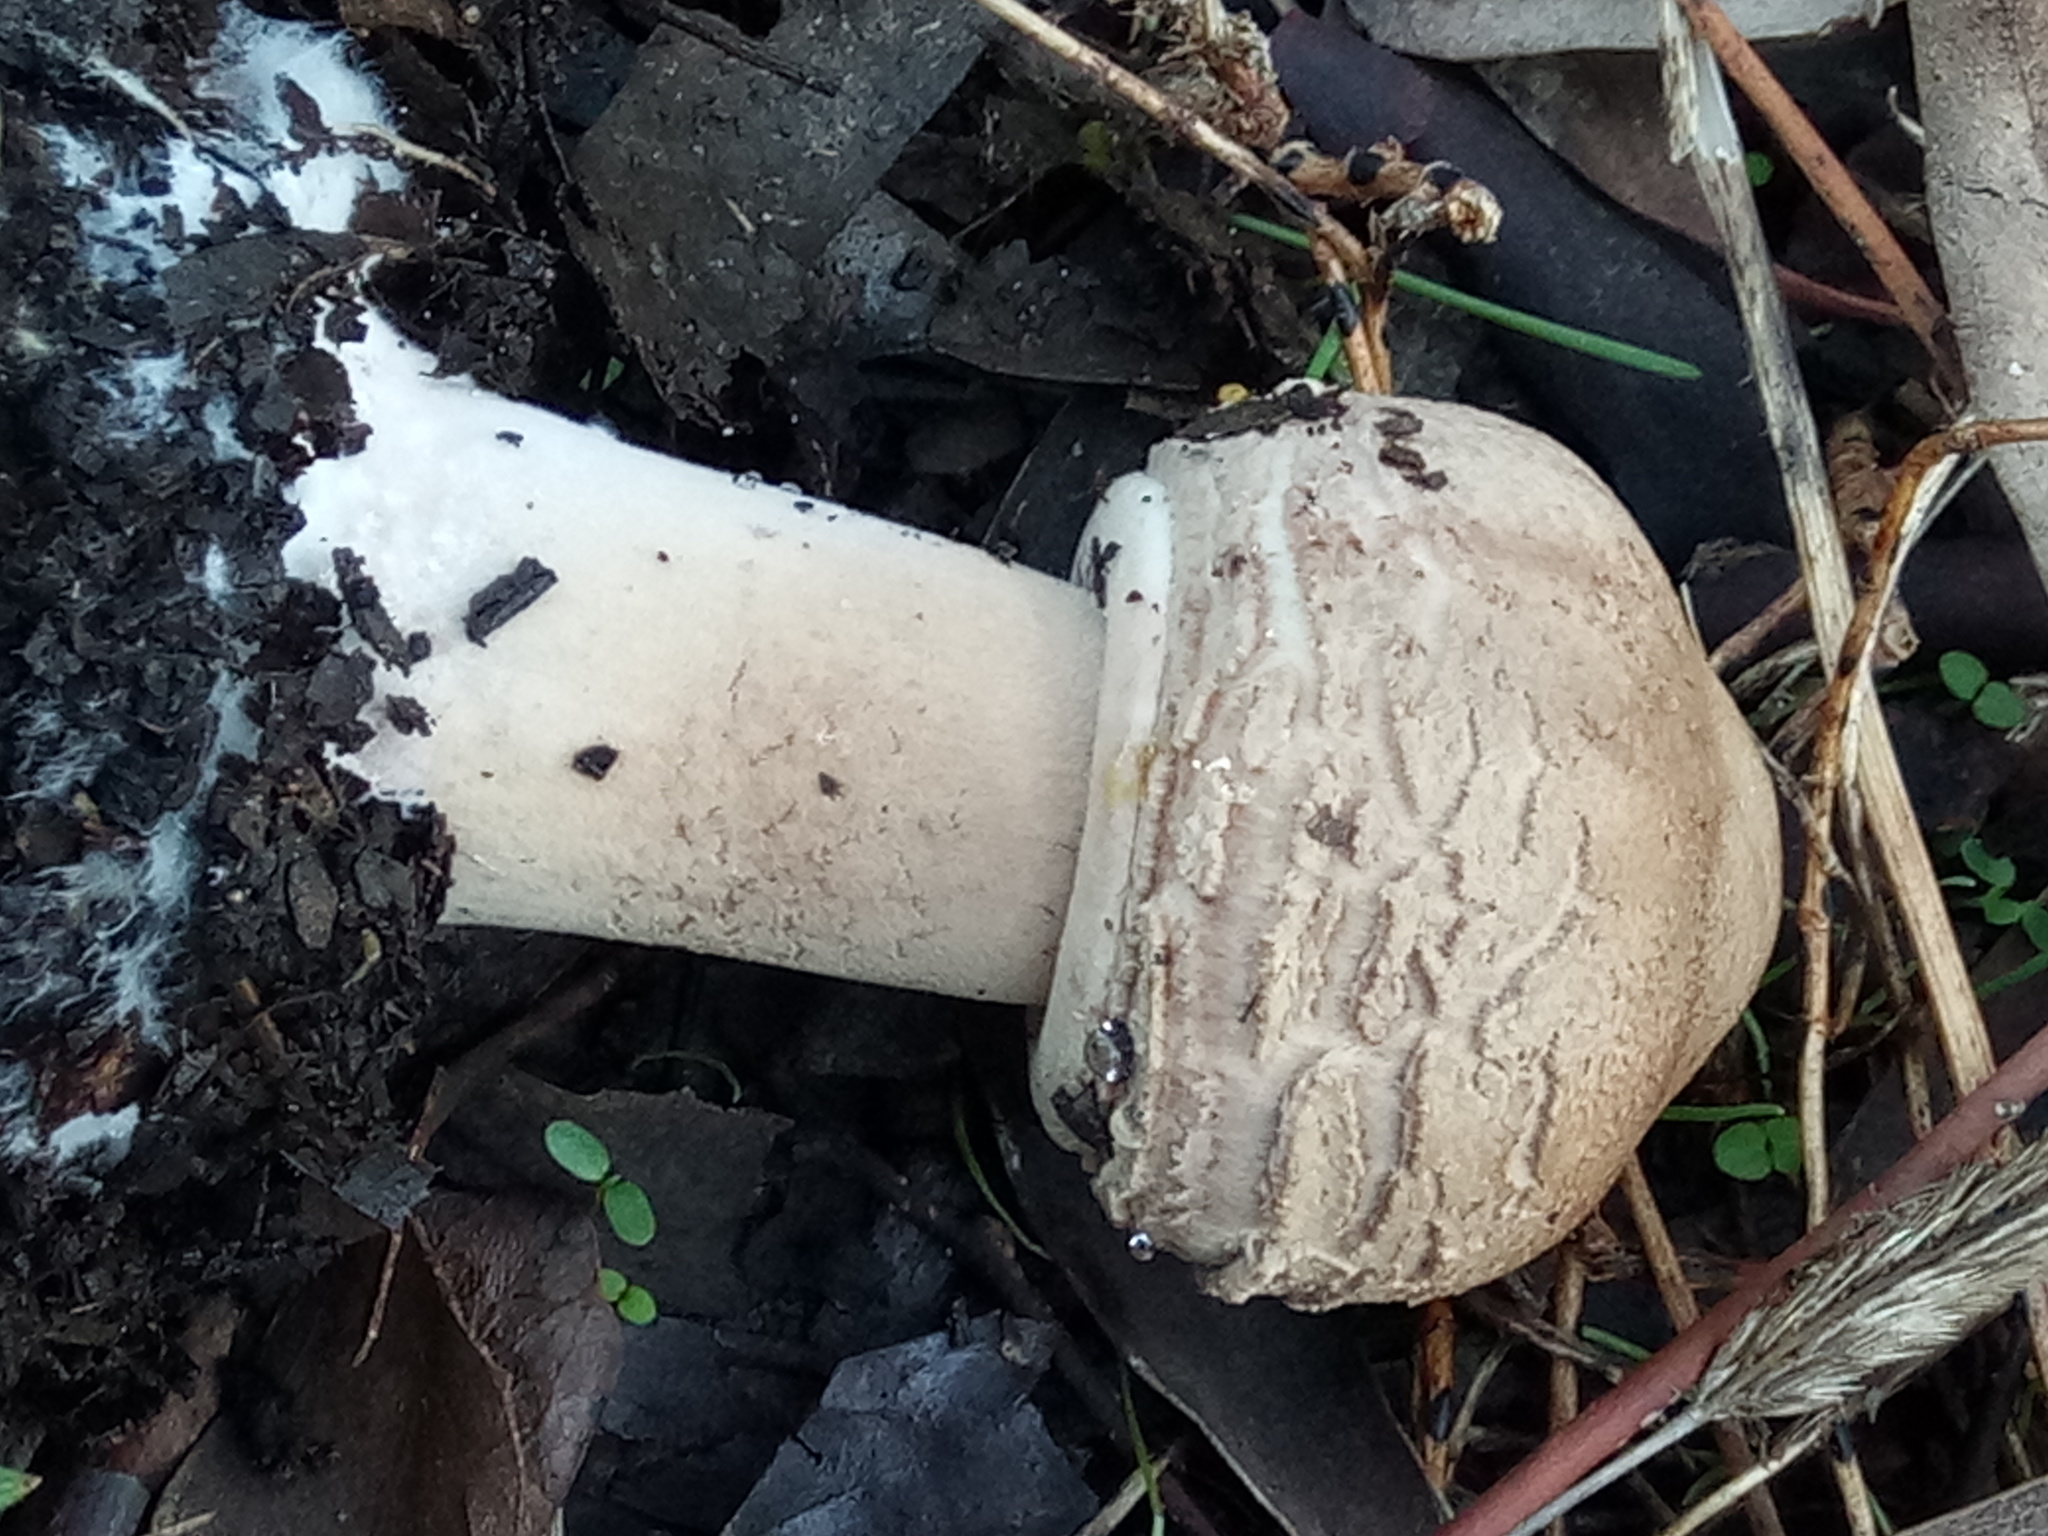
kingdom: Fungi
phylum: Basidiomycota
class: Agaricomycetes
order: Agaricales
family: Agaricaceae
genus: Macrolepiota
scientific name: Macrolepiota procera
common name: Parasol
